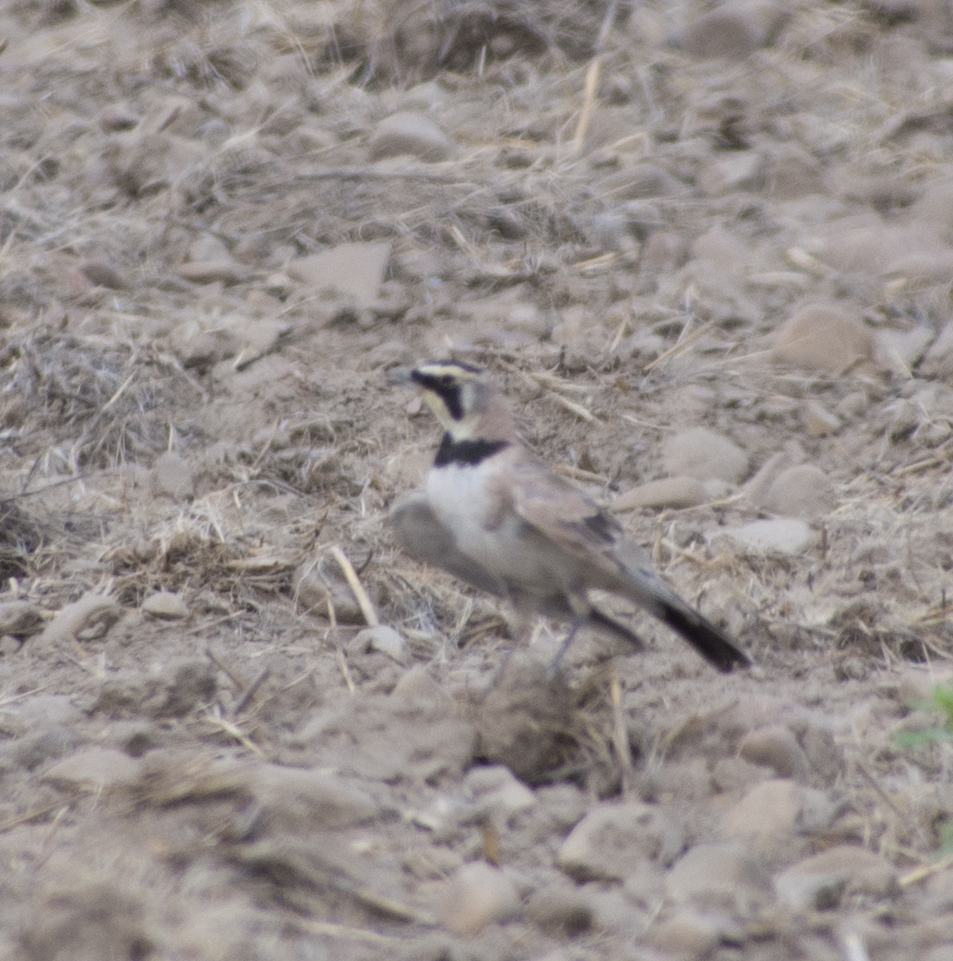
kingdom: Animalia
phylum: Chordata
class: Aves
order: Passeriformes
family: Alaudidae
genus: Eremophila
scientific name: Eremophila alpestris
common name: Horned lark
